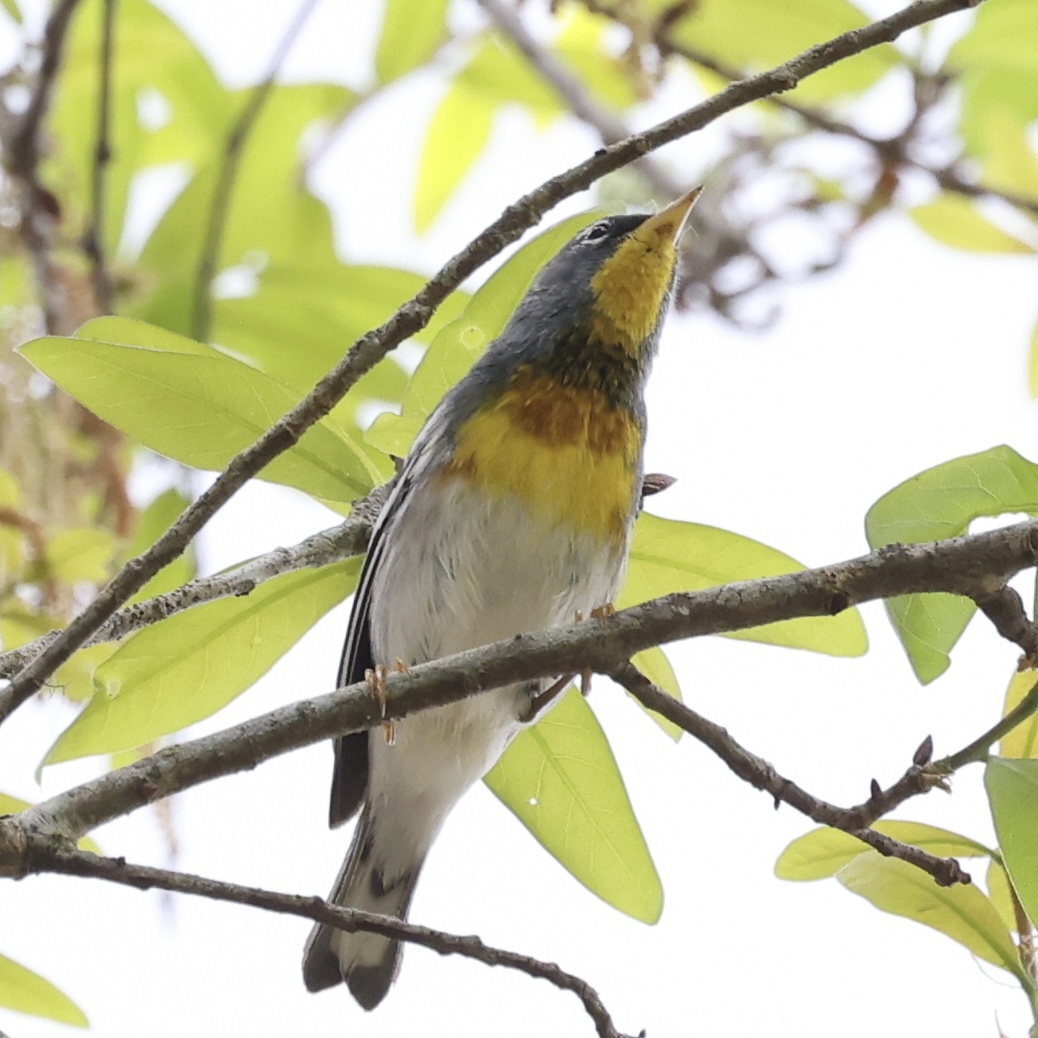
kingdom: Animalia
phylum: Chordata
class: Aves
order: Passeriformes
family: Parulidae
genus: Setophaga
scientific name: Setophaga americana
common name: Northern parula
